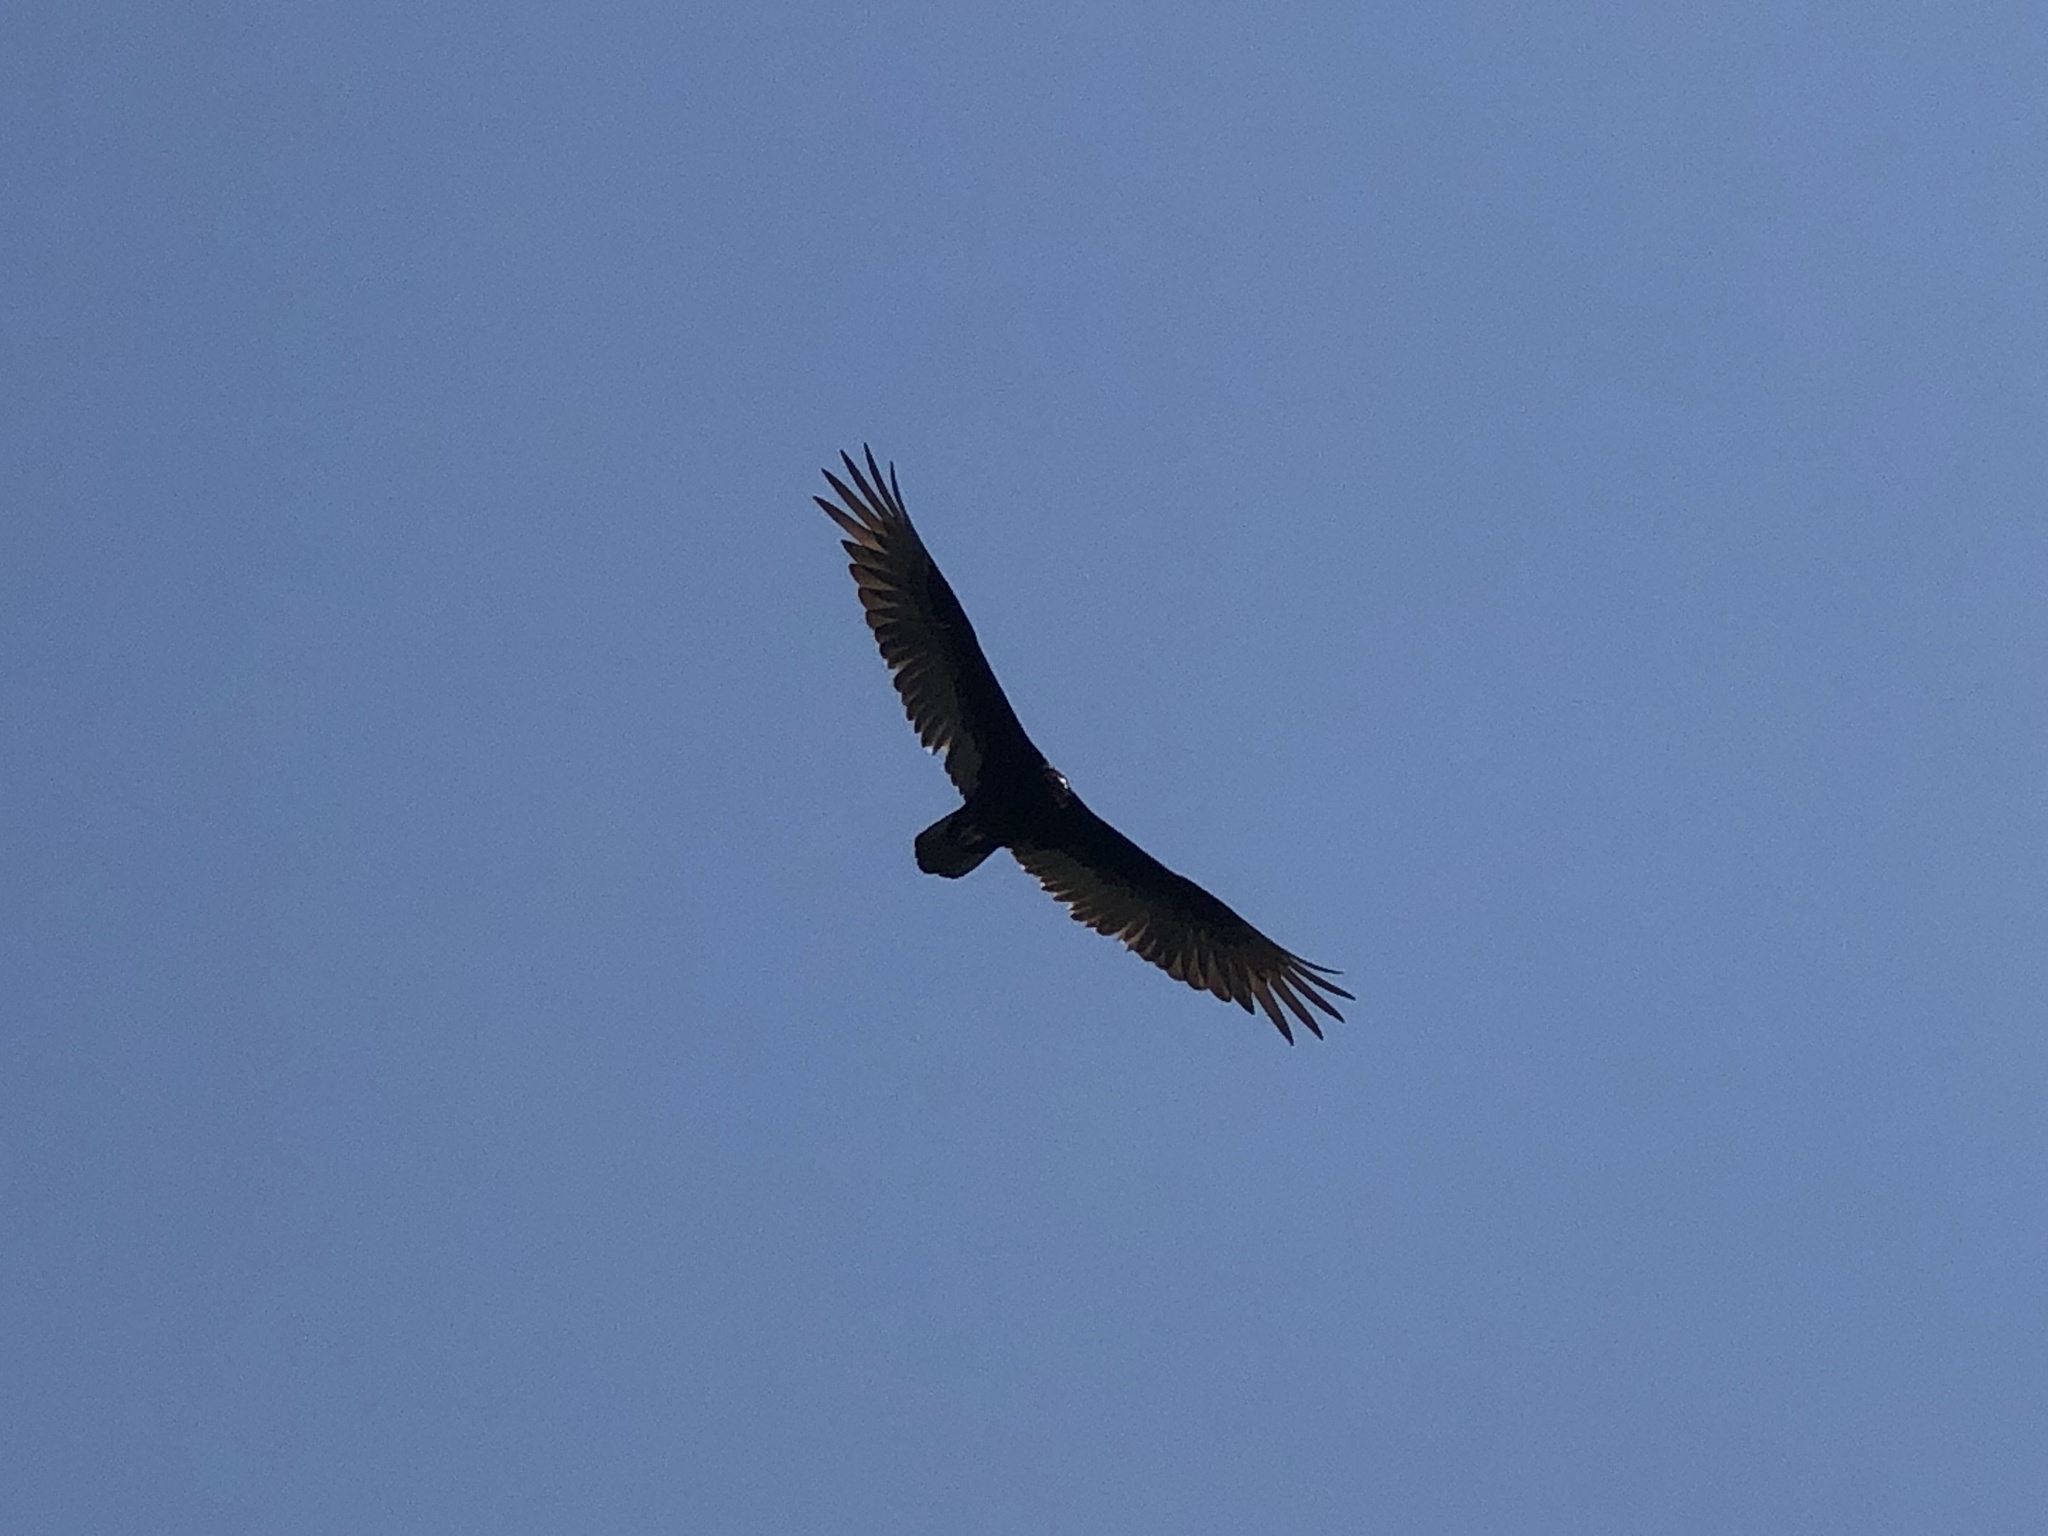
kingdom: Animalia
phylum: Chordata
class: Aves
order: Accipitriformes
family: Cathartidae
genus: Cathartes
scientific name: Cathartes aura
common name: Turkey vulture
